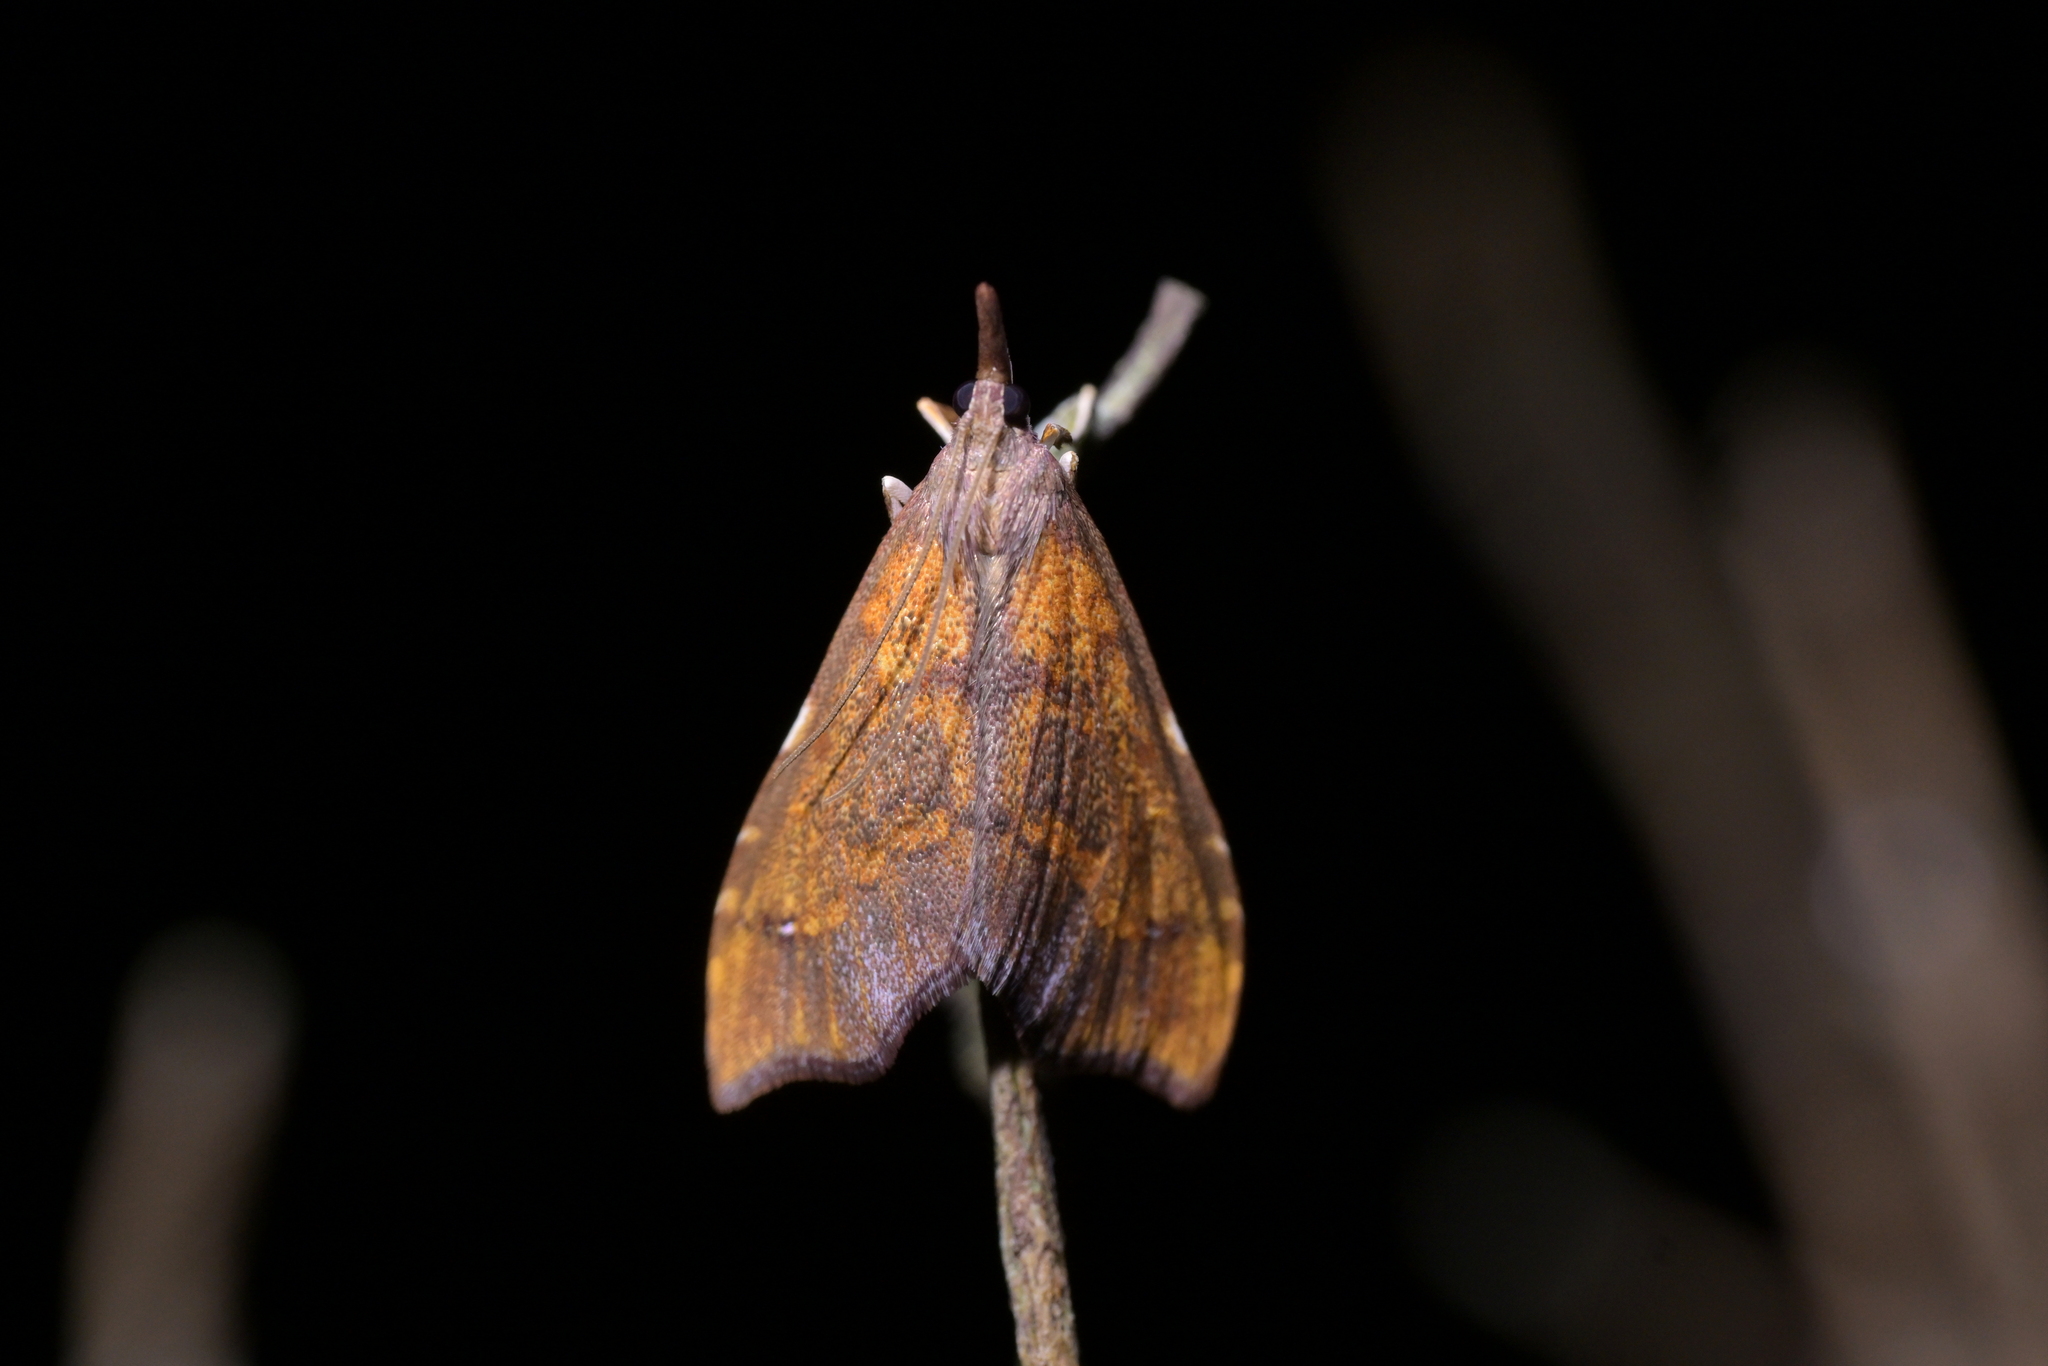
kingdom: Animalia
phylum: Arthropoda
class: Insecta
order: Lepidoptera
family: Crambidae
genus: Deana
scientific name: Deana hybreasalis
